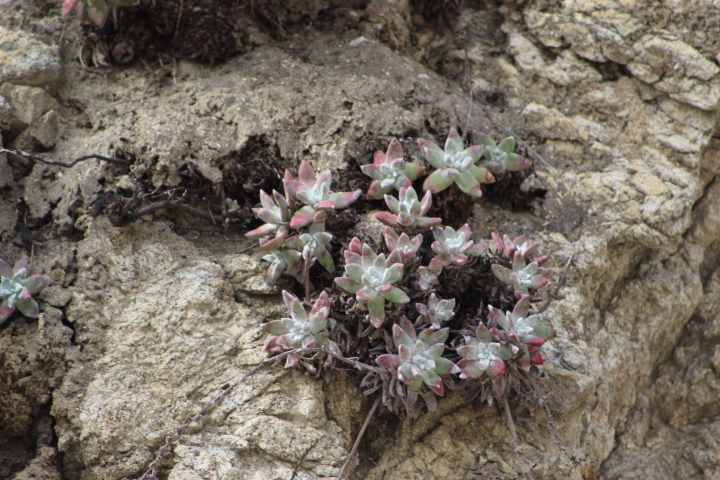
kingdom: Plantae
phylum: Tracheophyta
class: Magnoliopsida
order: Saxifragales
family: Crassulaceae
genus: Dudleya
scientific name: Dudleya farinosa
